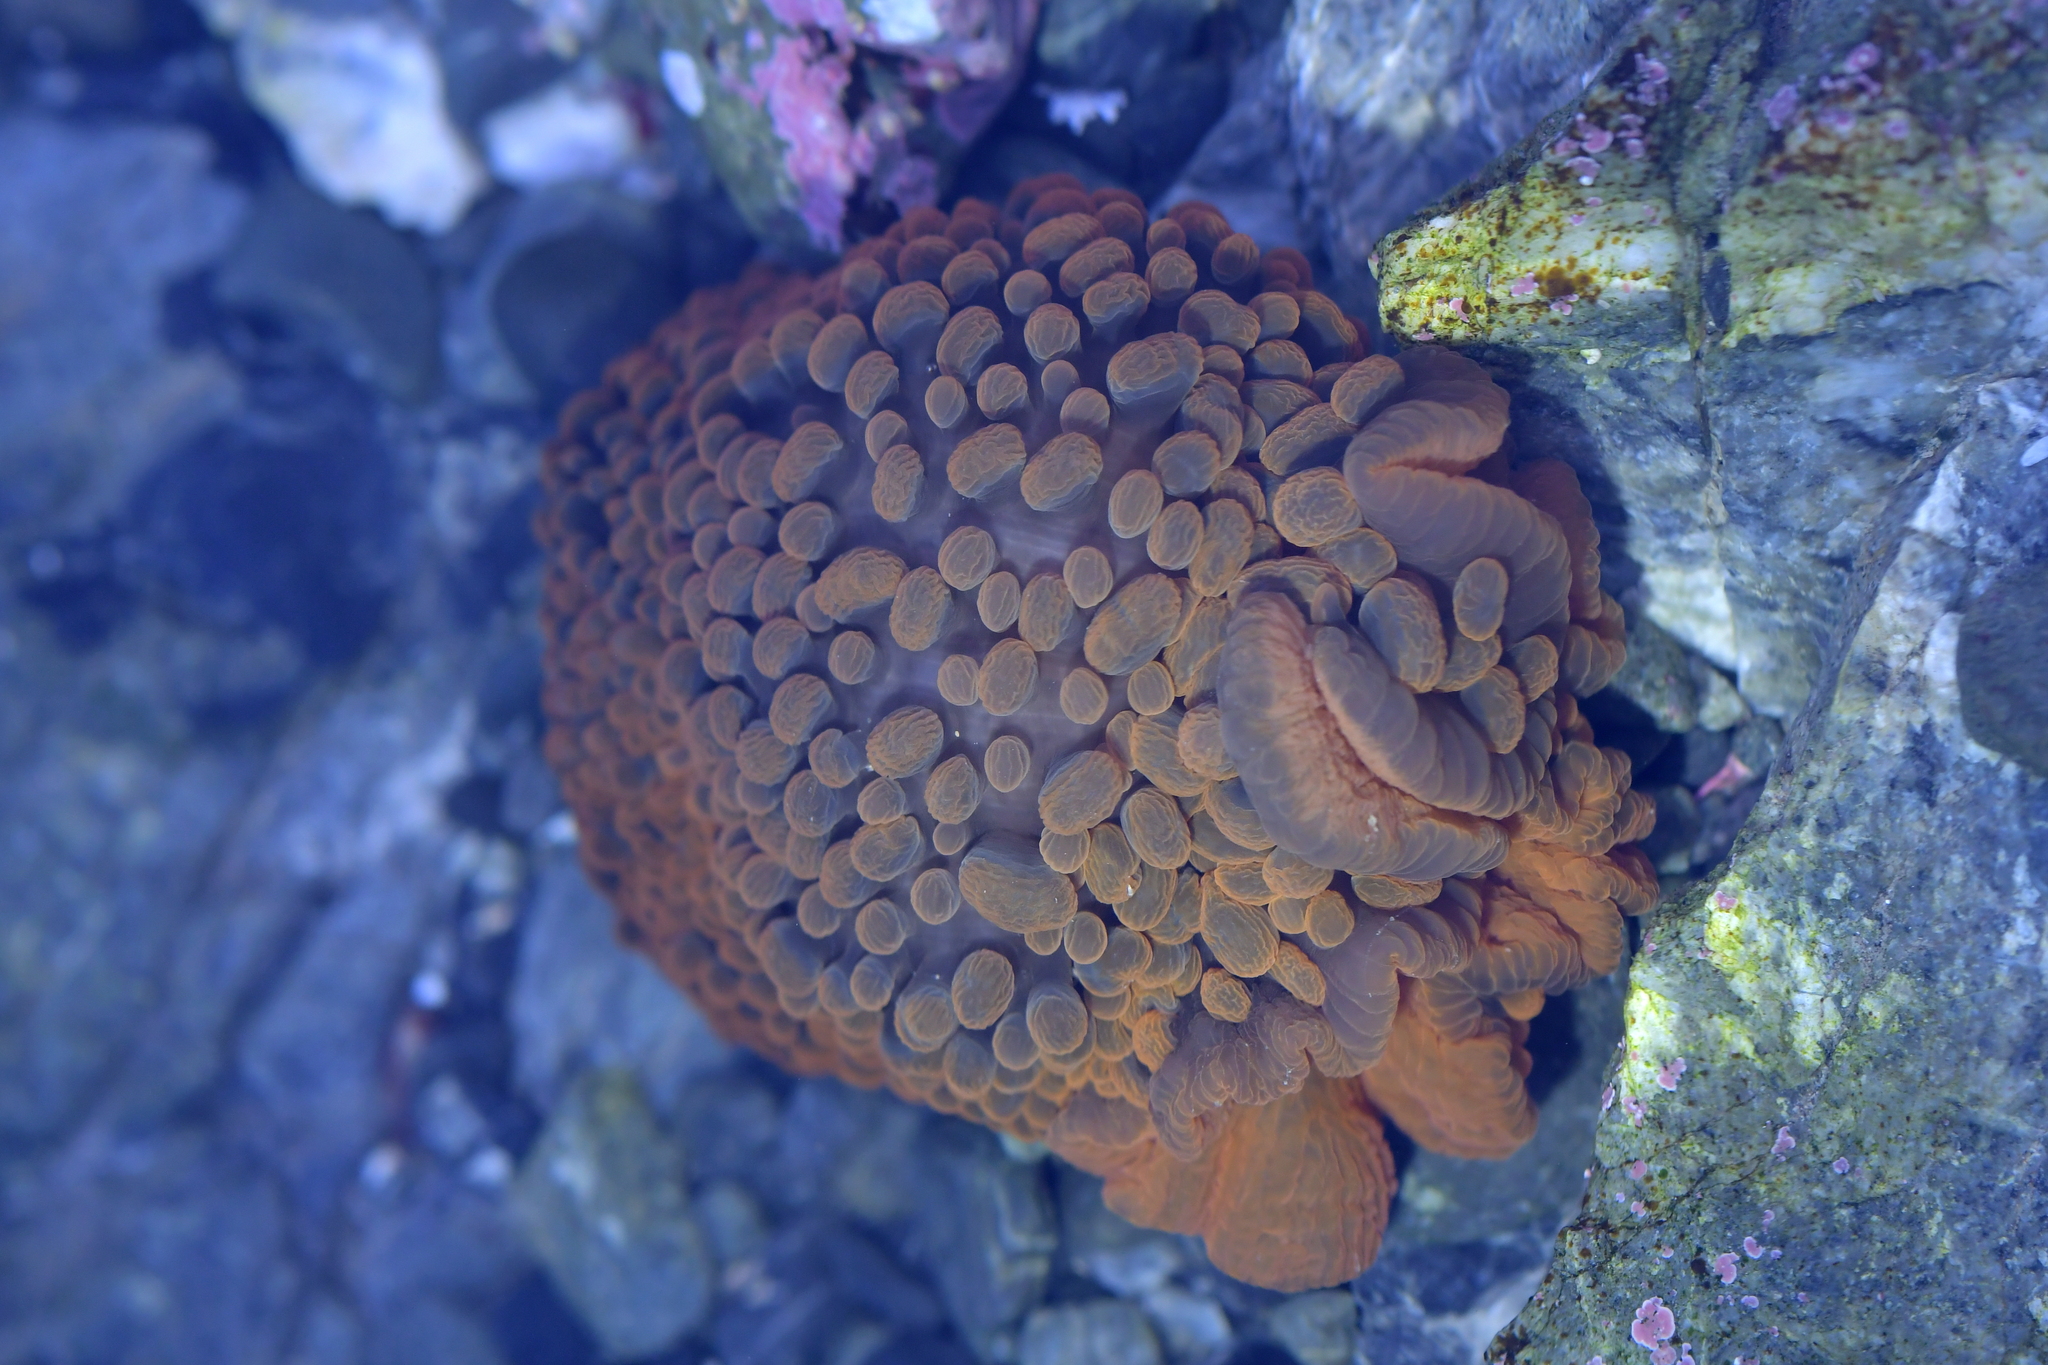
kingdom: Animalia
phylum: Cnidaria
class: Anthozoa
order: Actiniaria
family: Actiniidae
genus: Phlyctenactis
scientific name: Phlyctenactis tuberculosa
